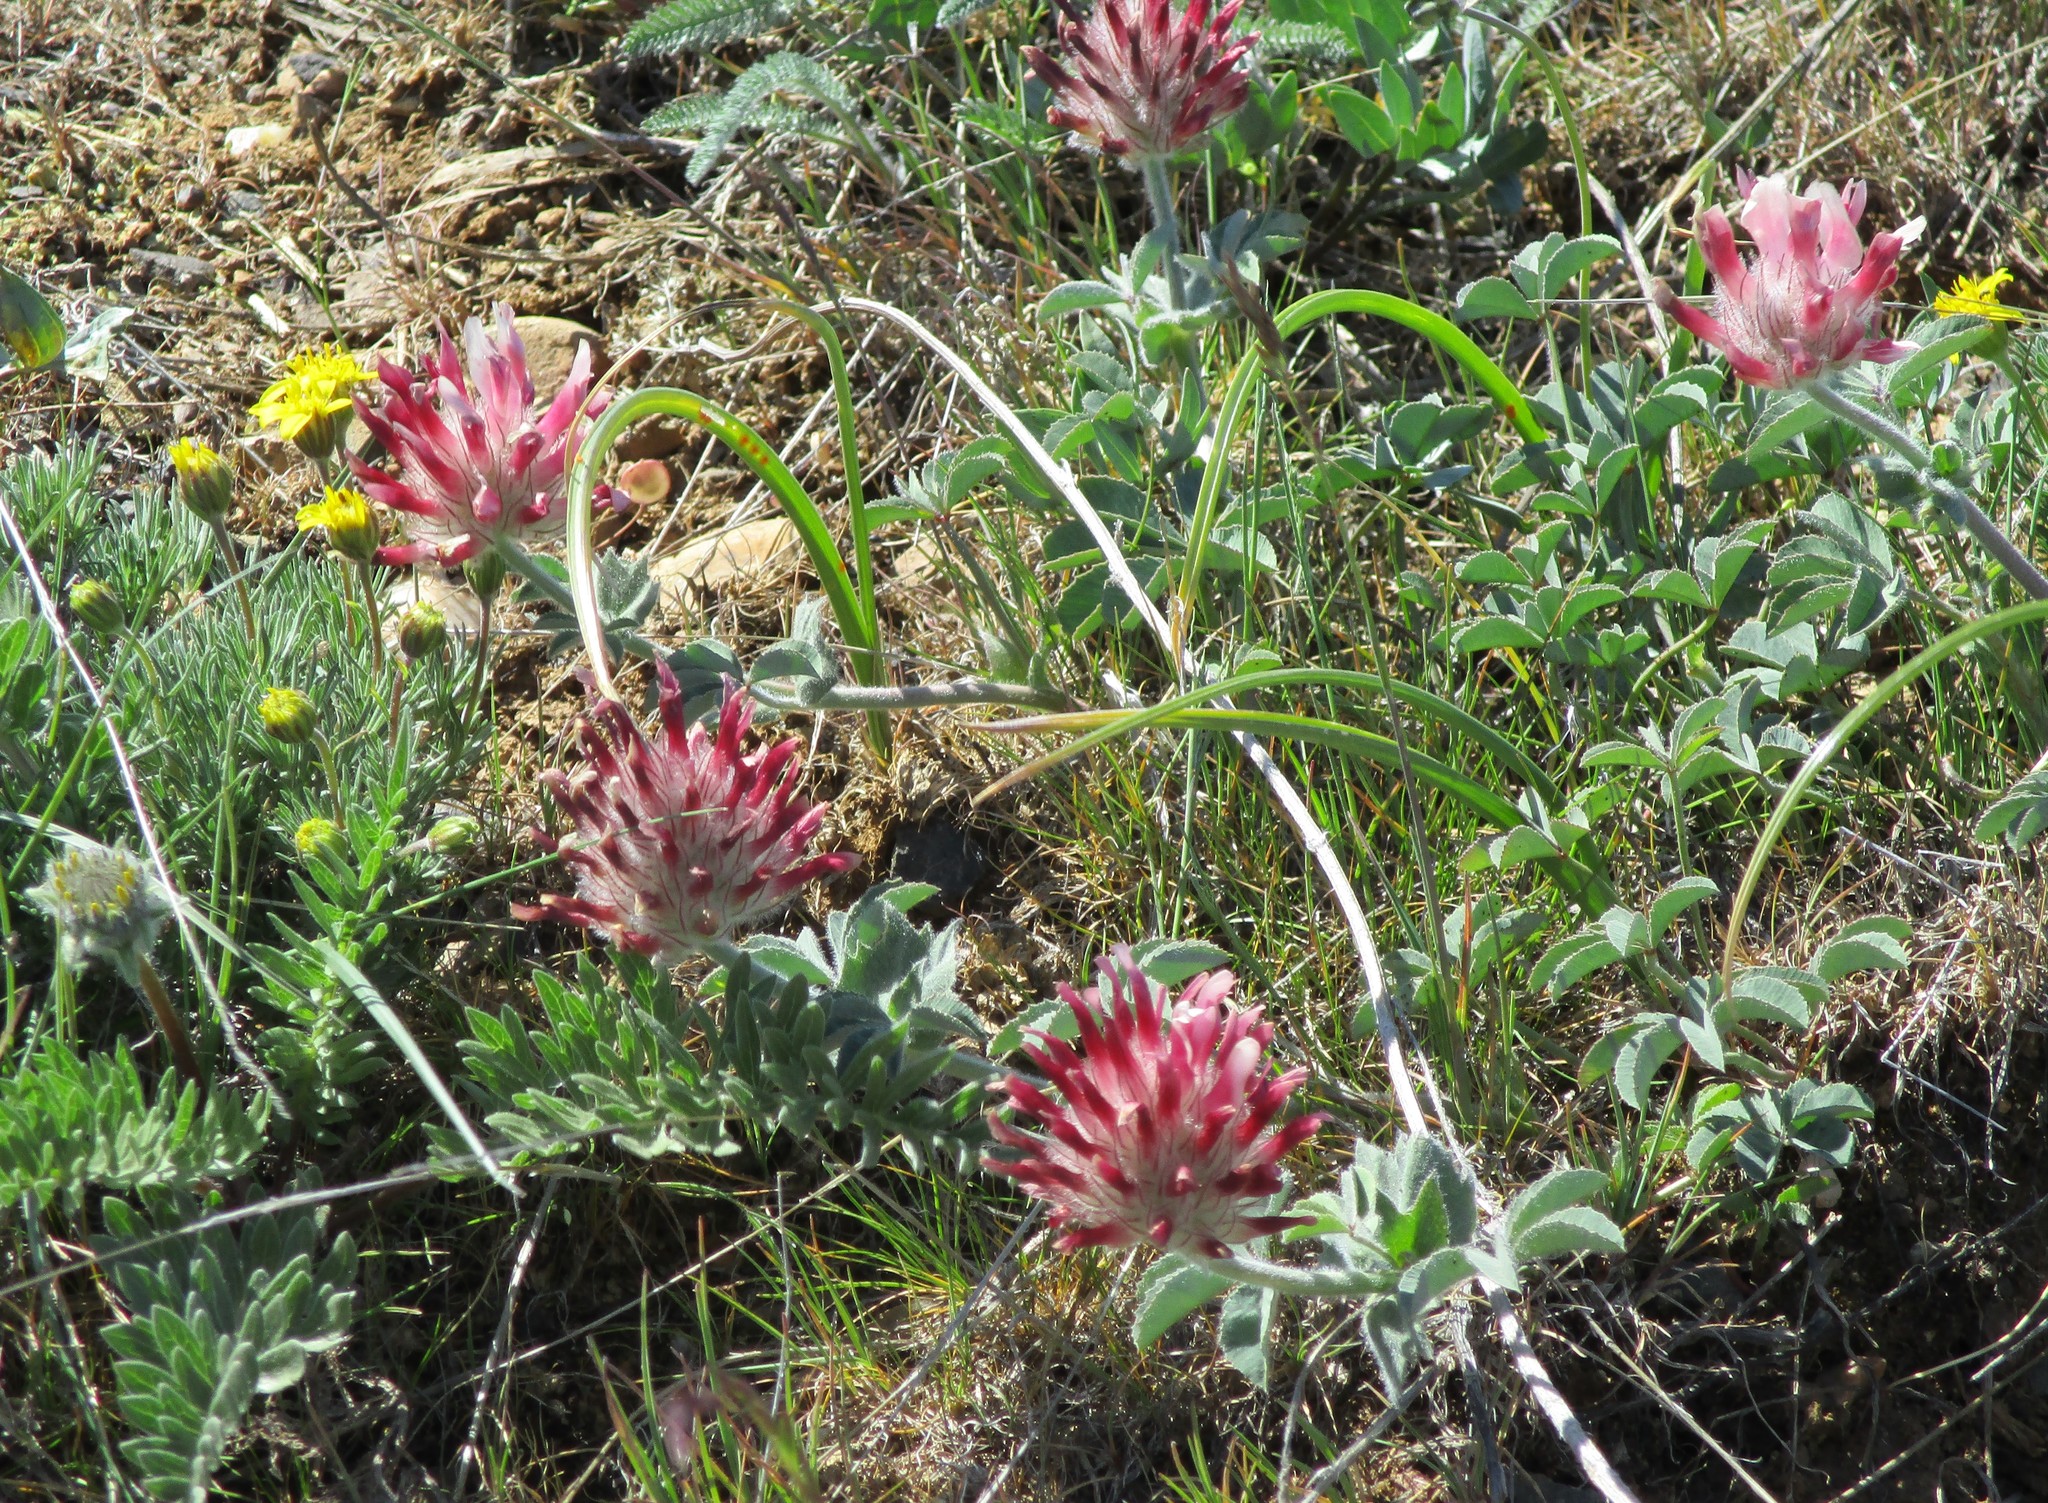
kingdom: Plantae
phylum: Tracheophyta
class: Magnoliopsida
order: Fabales
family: Fabaceae
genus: Trifolium
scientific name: Trifolium macrocephalum
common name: Large-head clover
